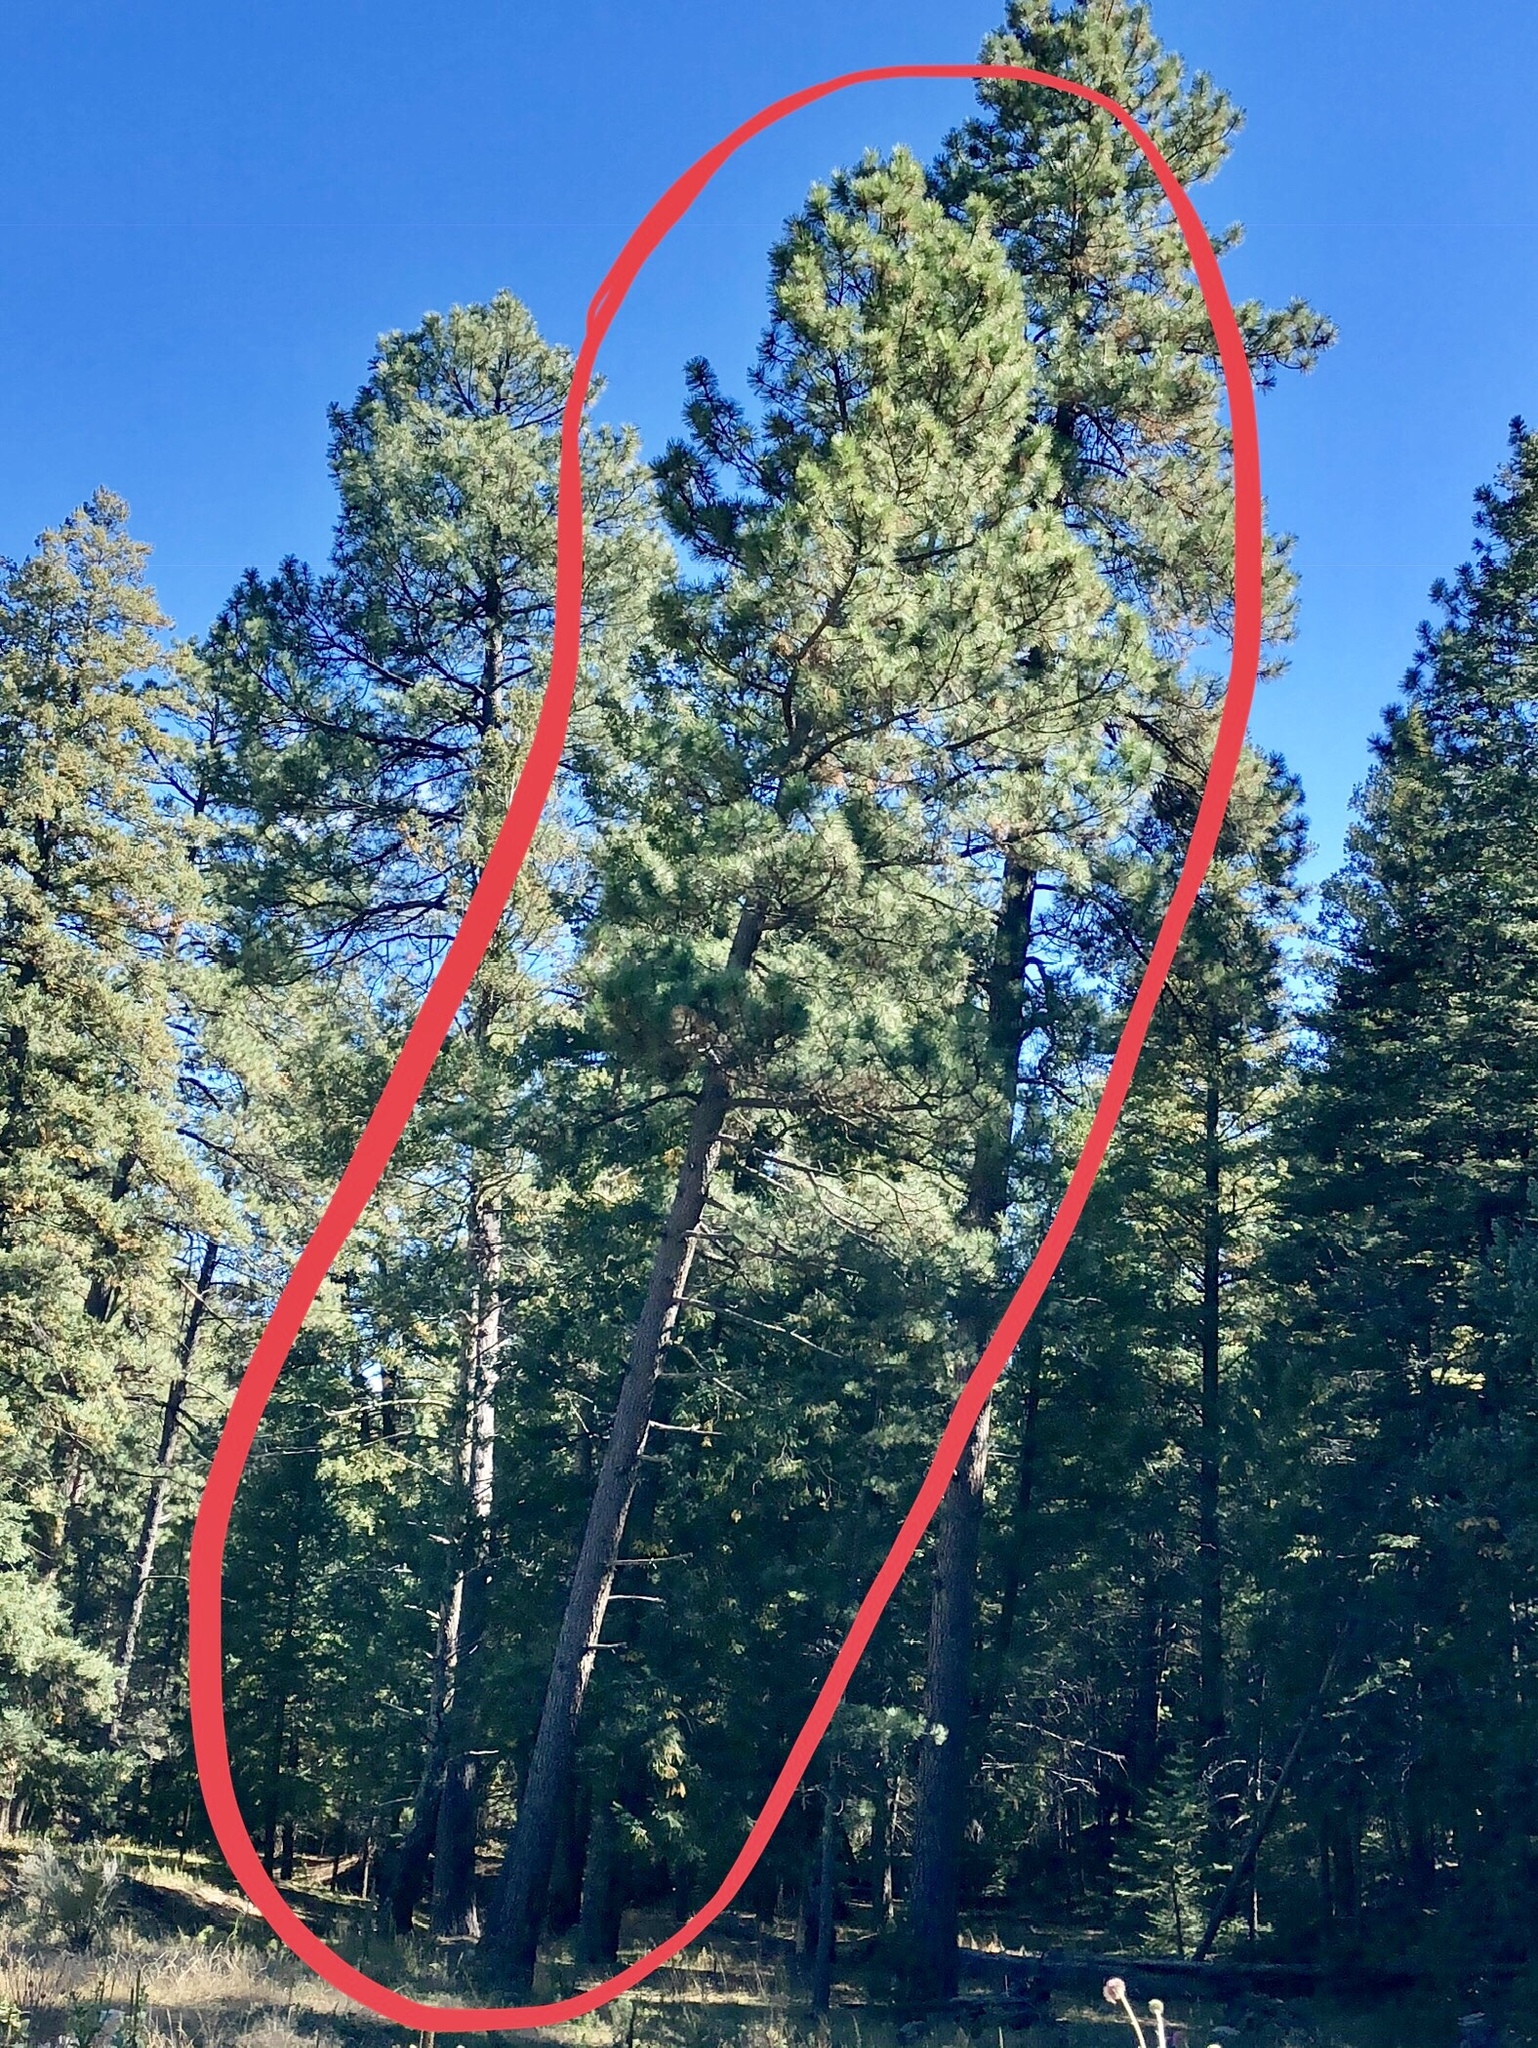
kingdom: Plantae
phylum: Tracheophyta
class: Pinopsida
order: Pinales
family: Pinaceae
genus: Pinus
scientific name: Pinus ponderosa
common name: Western yellow-pine
